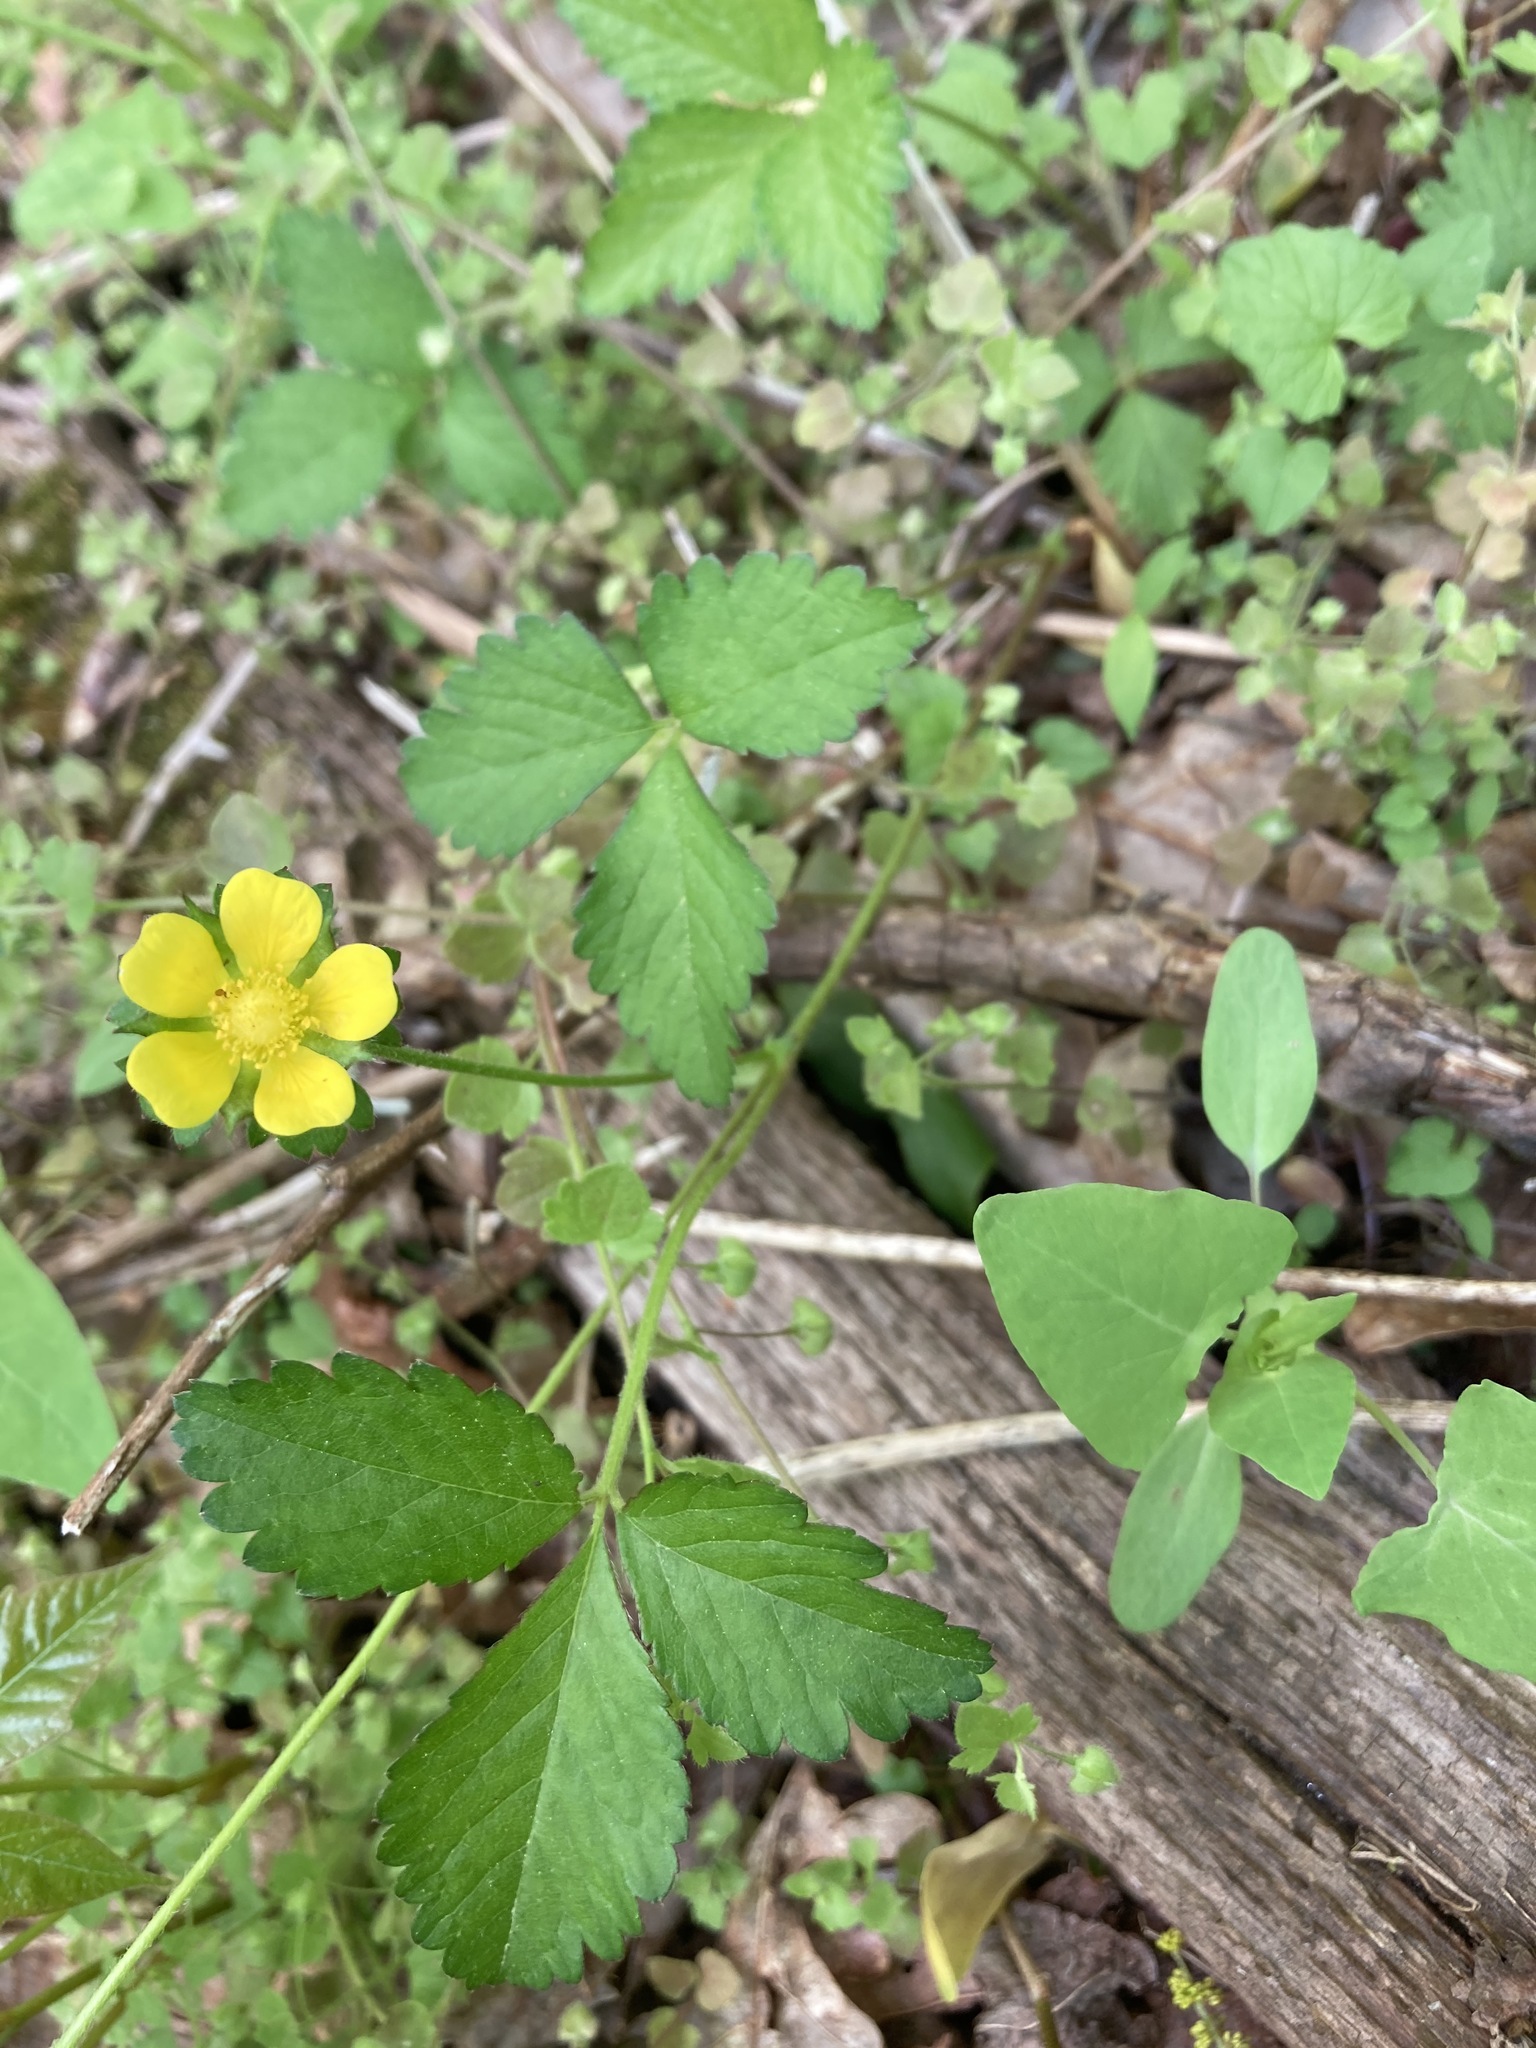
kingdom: Plantae
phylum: Tracheophyta
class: Magnoliopsida
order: Rosales
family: Rosaceae
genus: Potentilla
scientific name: Potentilla indica
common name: Yellow-flowered strawberry
